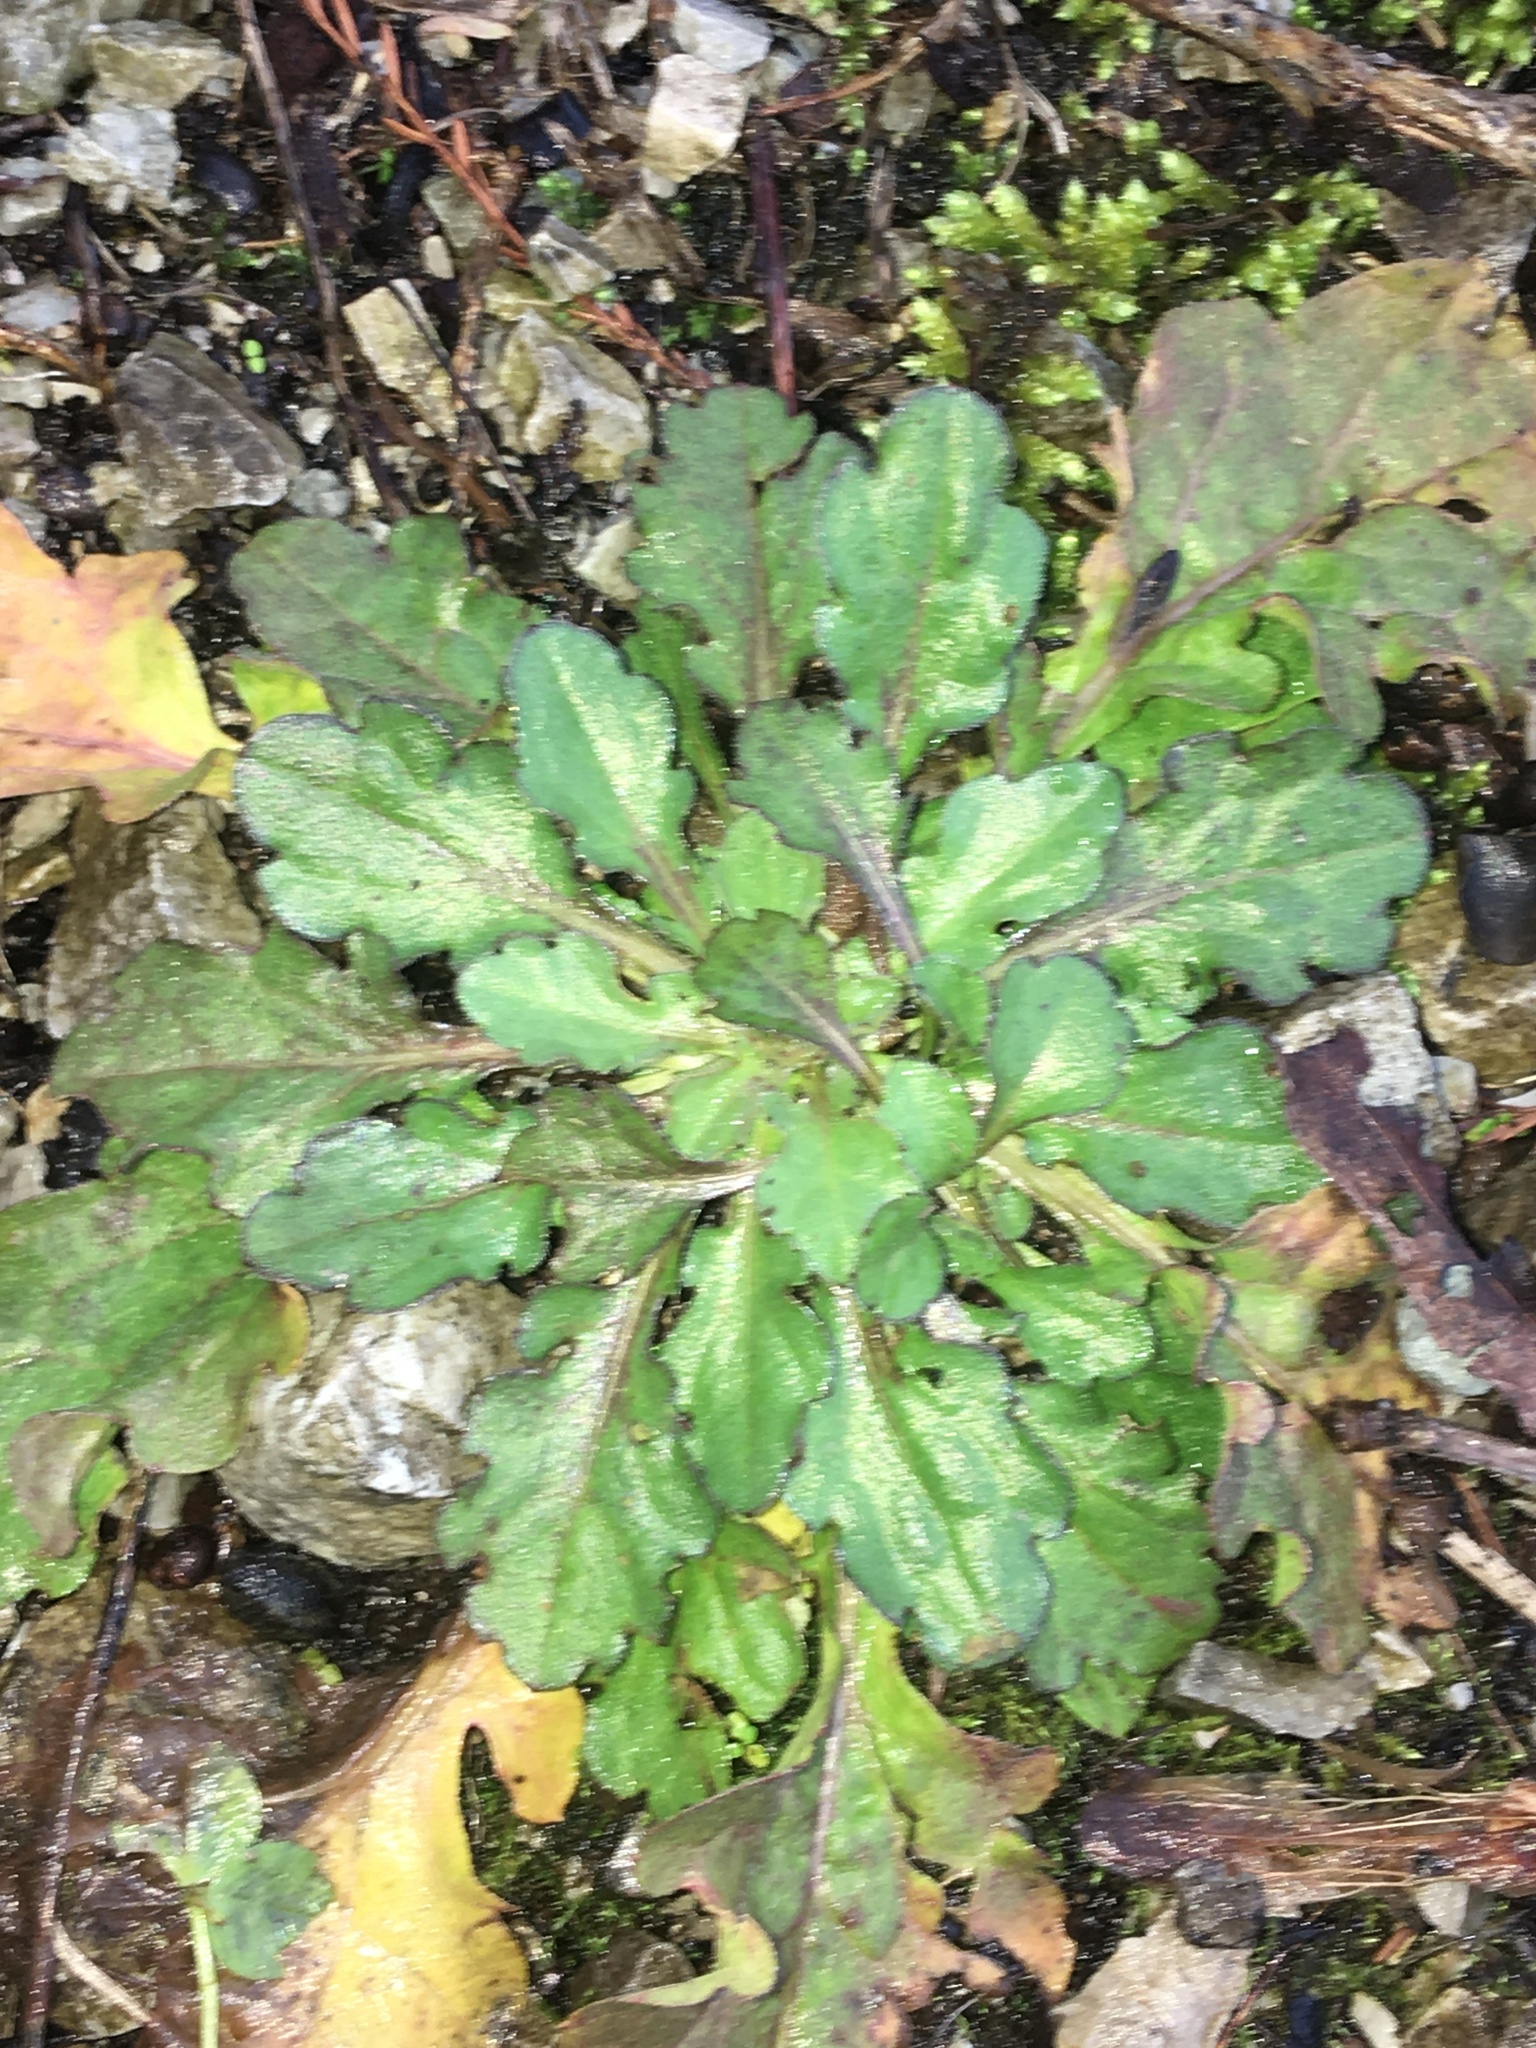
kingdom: Plantae
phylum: Tracheophyta
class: Magnoliopsida
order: Lamiales
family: Lamiaceae
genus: Salvia
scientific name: Salvia lyrata
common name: Cancerweed
